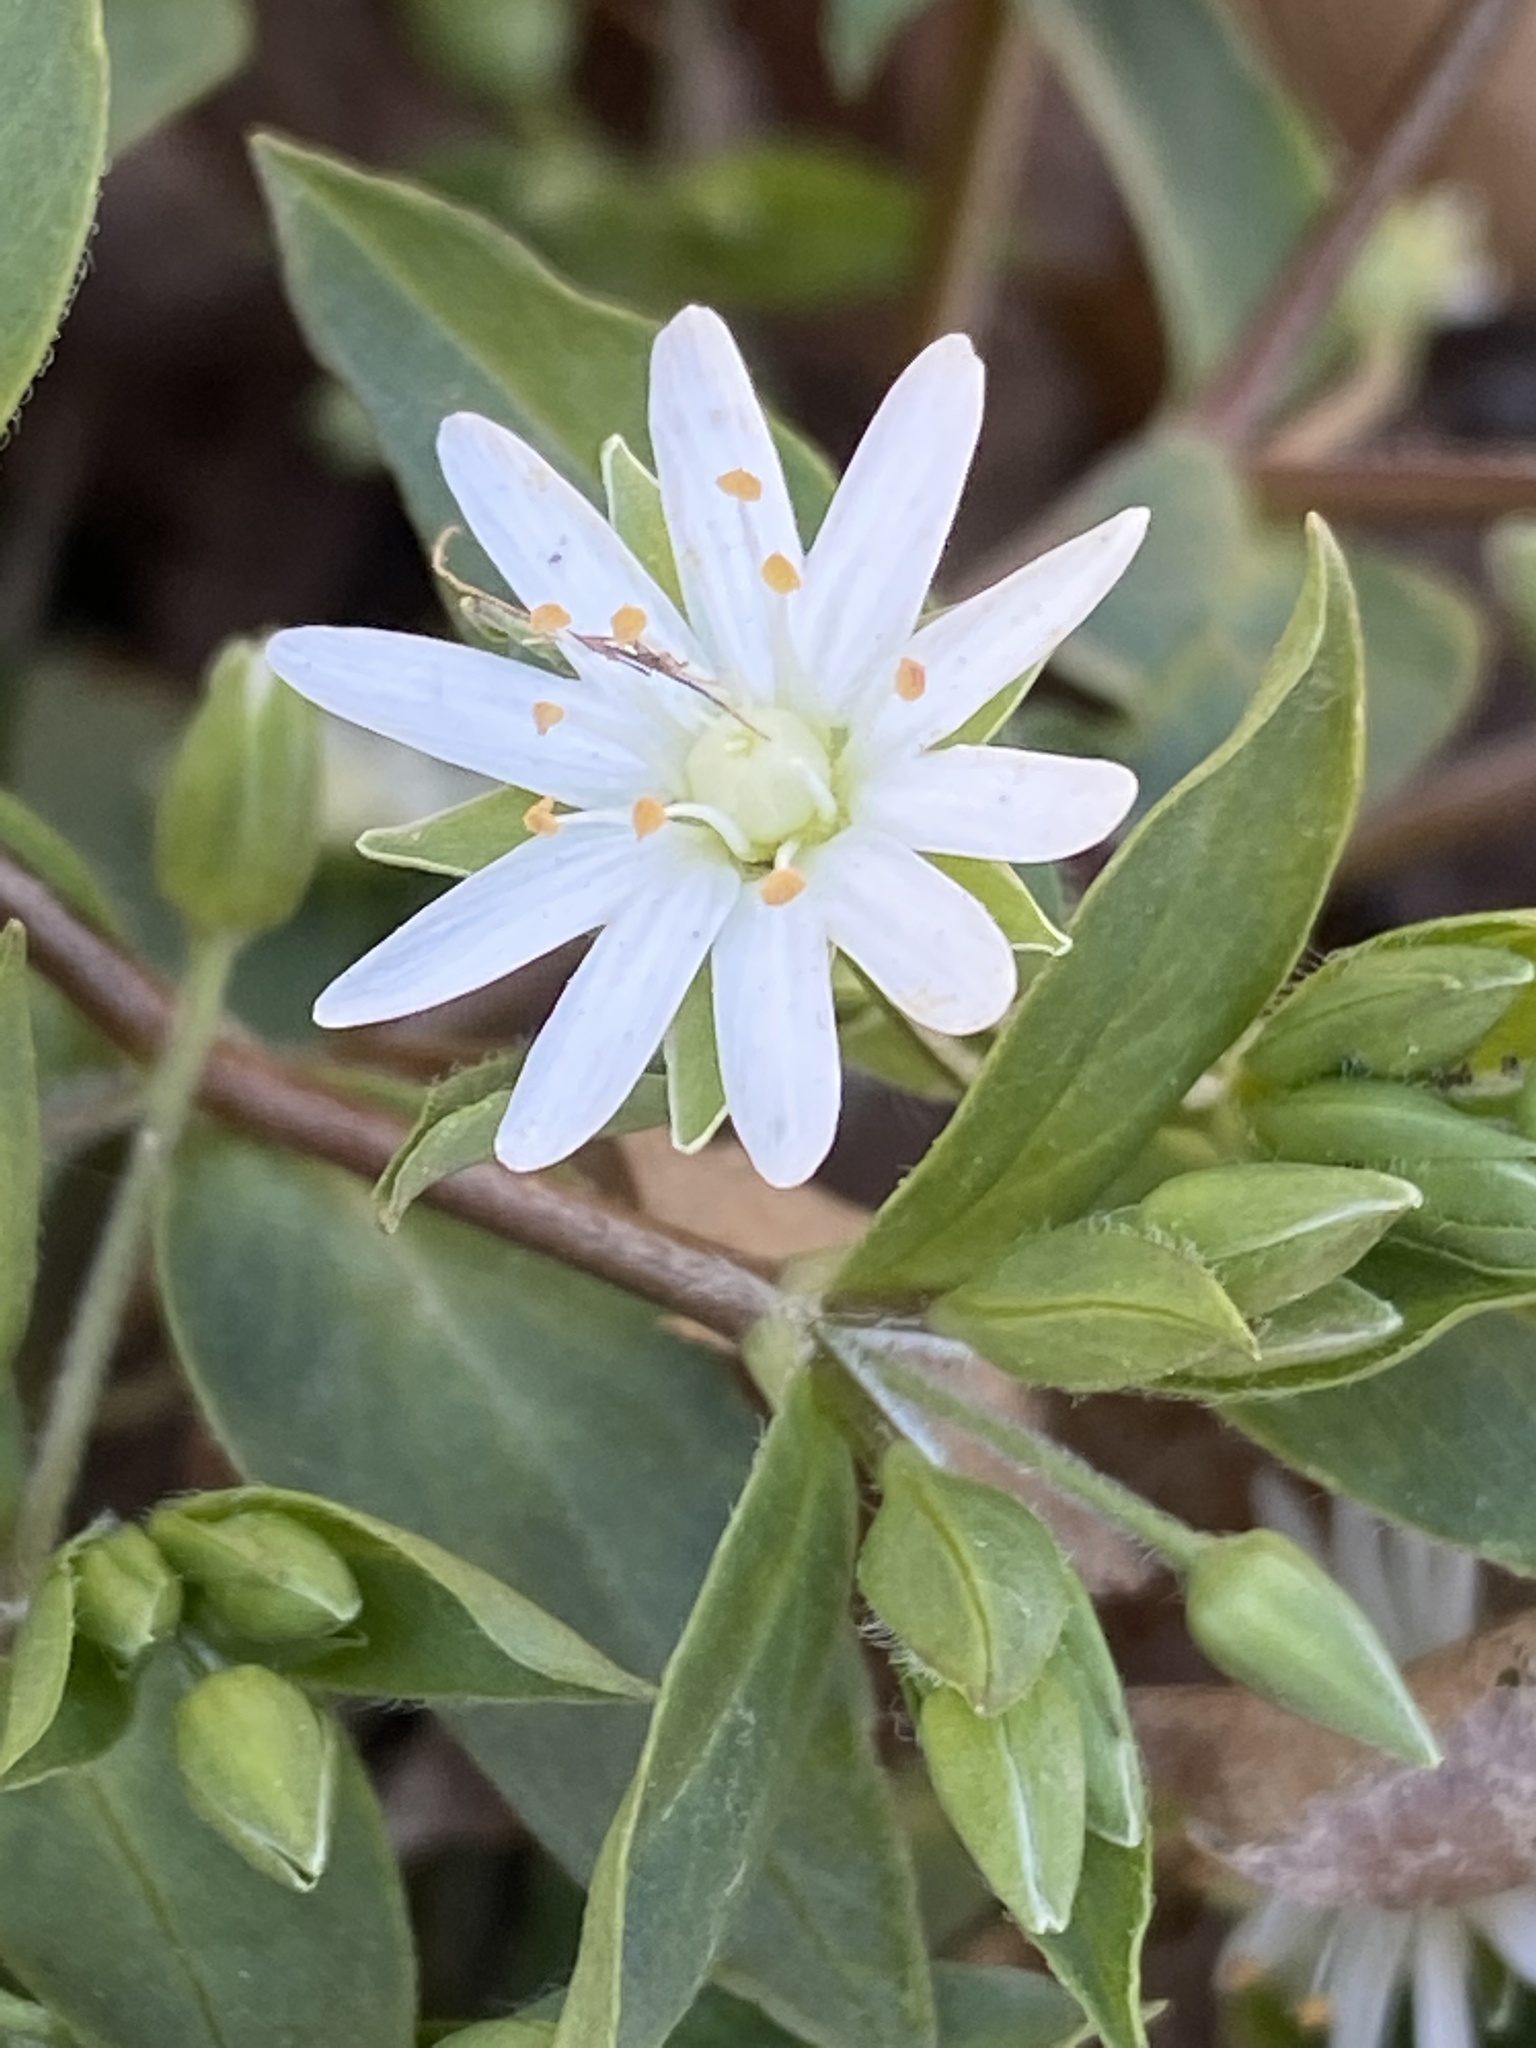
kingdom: Plantae
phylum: Tracheophyta
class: Magnoliopsida
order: Caryophyllales
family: Caryophyllaceae
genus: Stellaria
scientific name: Stellaria pubera
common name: Star chickweed
